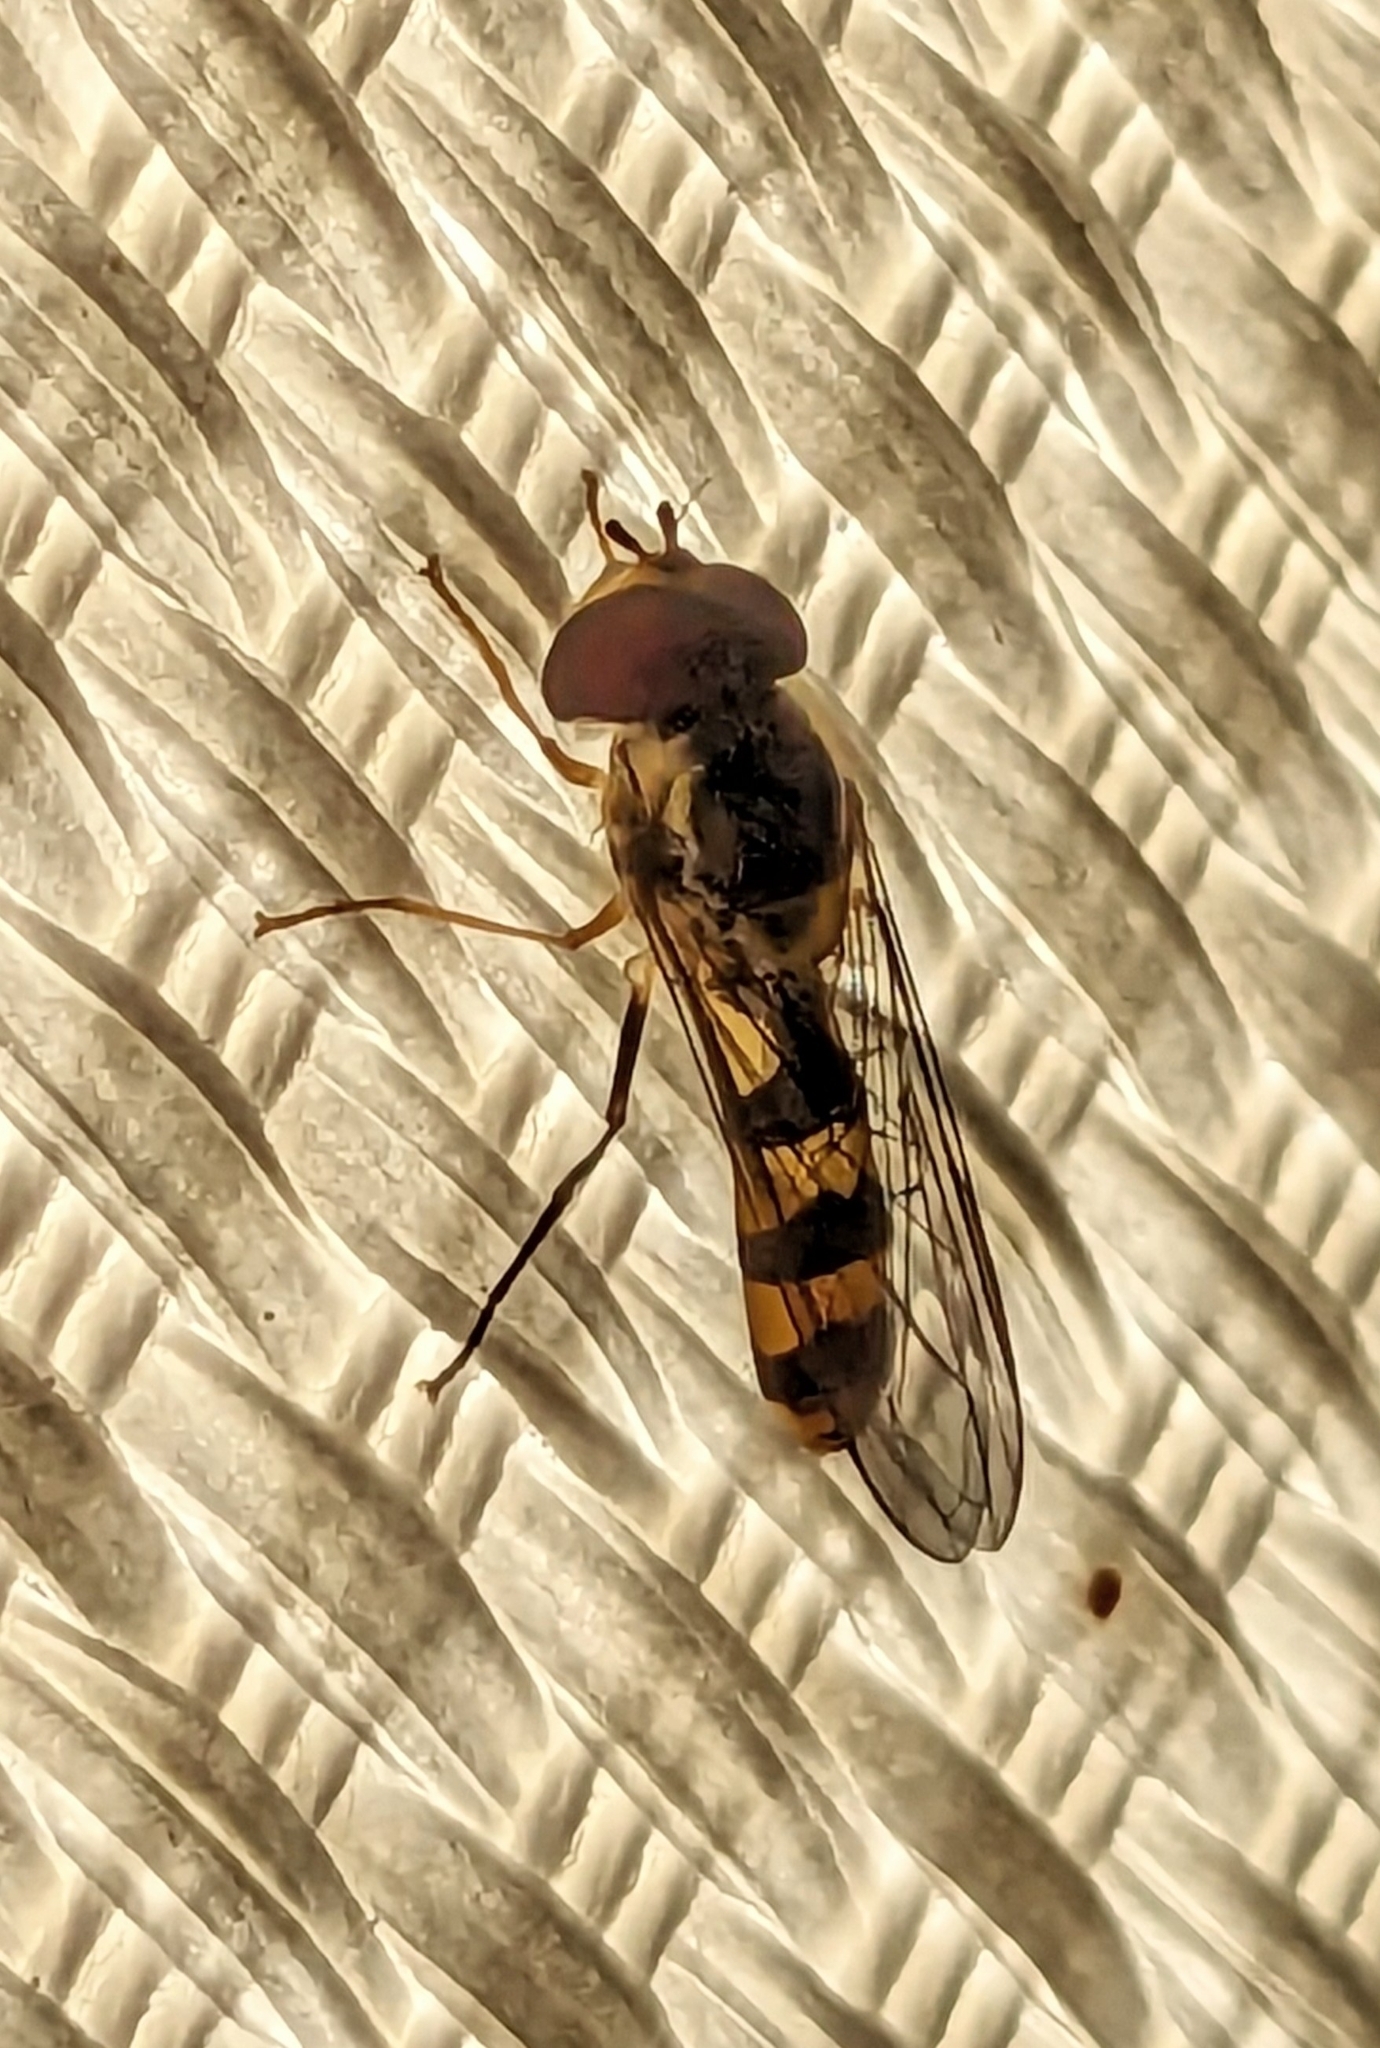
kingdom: Animalia
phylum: Arthropoda
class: Insecta
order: Diptera
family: Syrphidae
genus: Meliscaeva
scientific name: Meliscaeva cinctella
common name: American thintail fly
